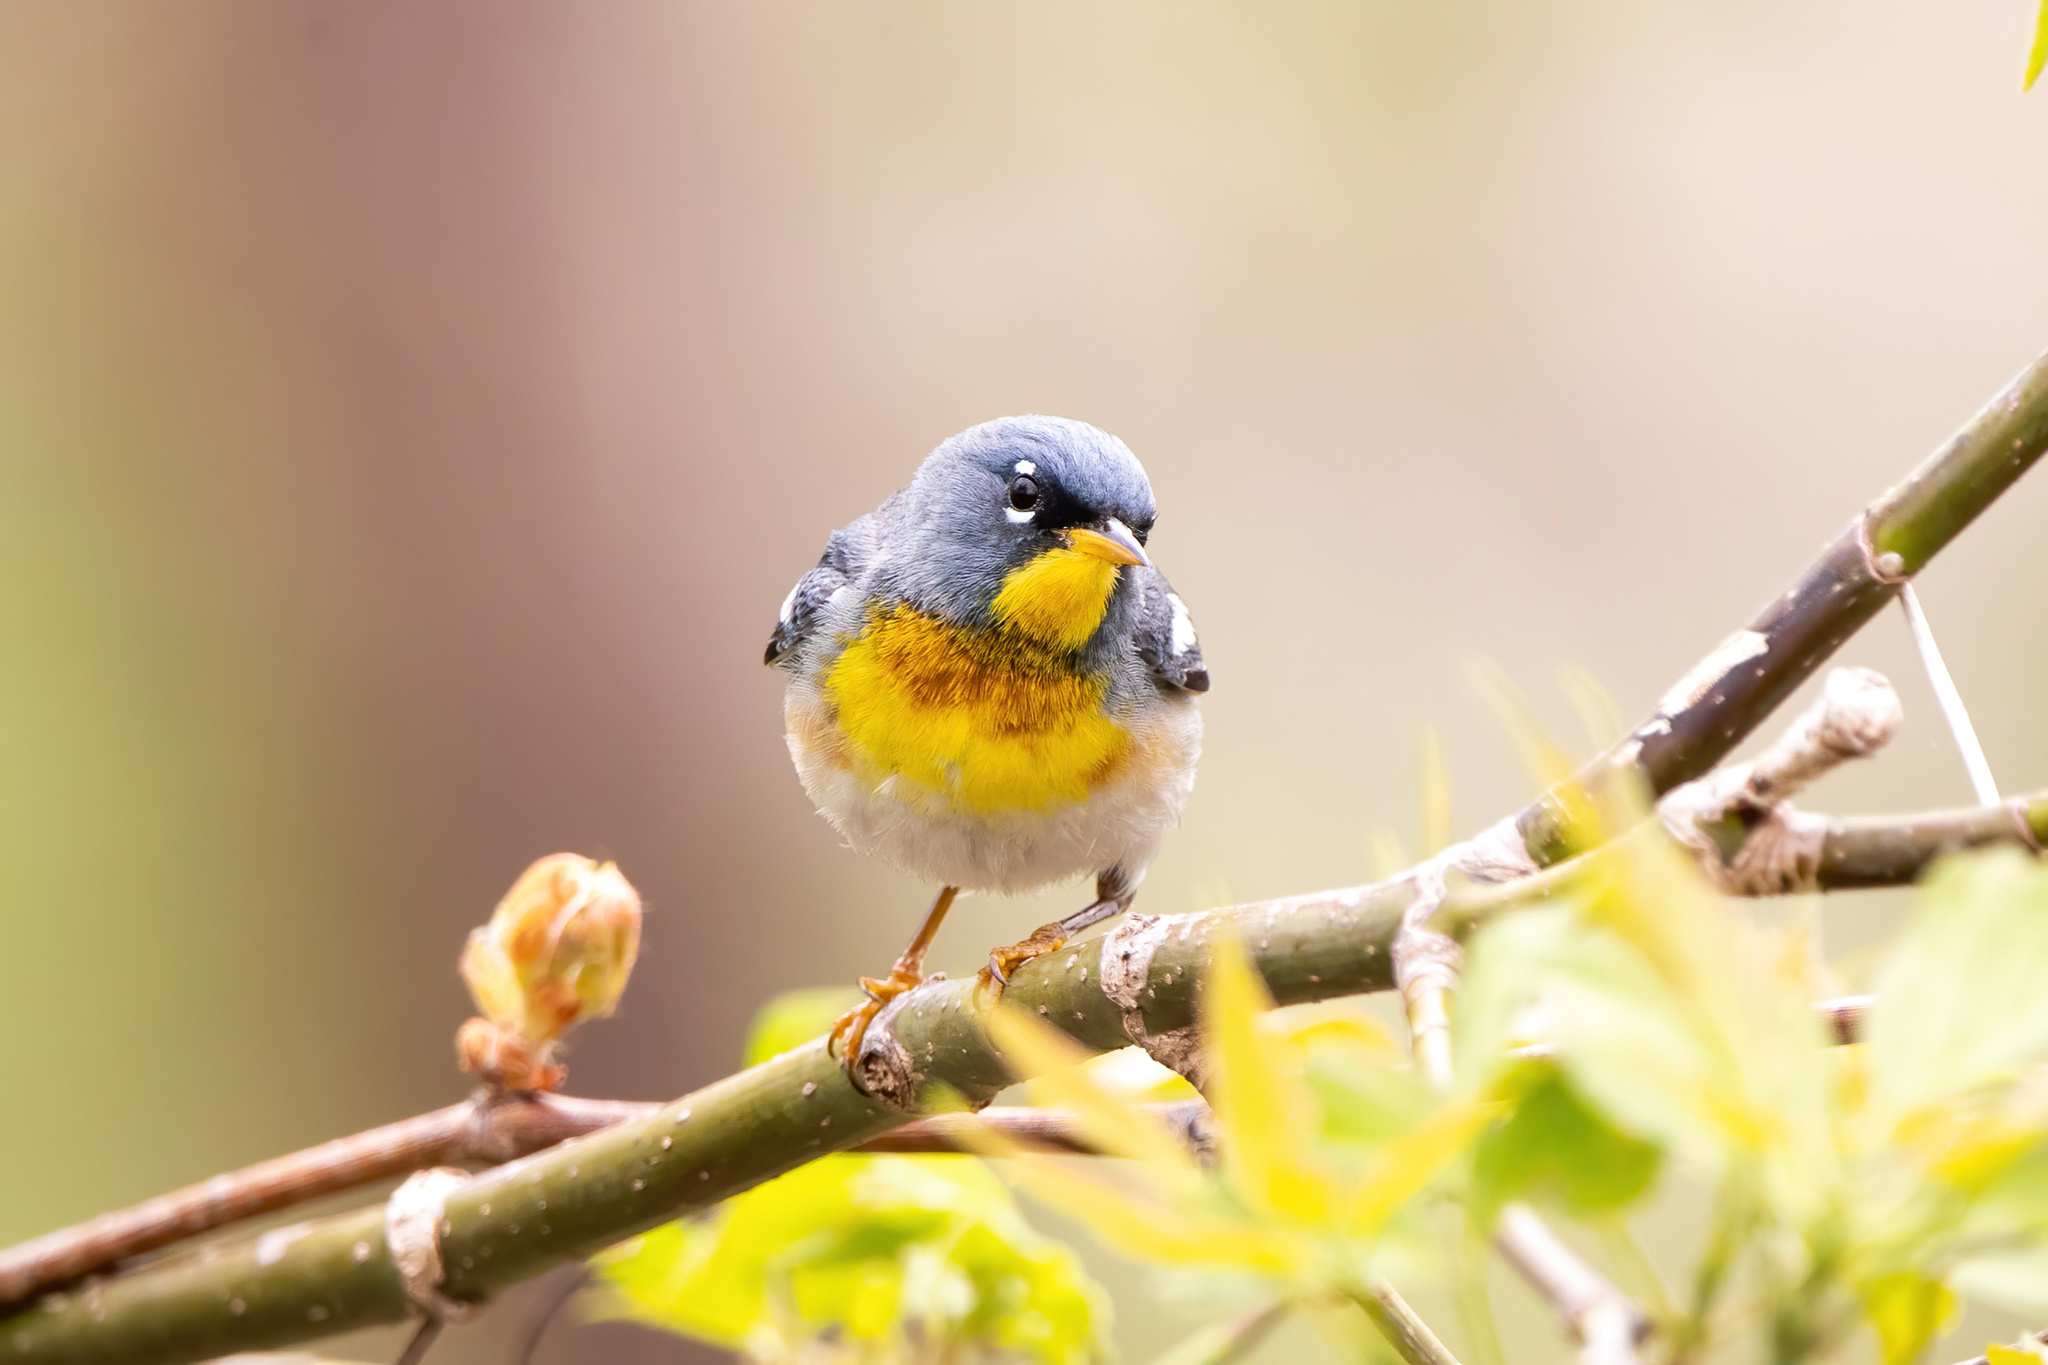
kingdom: Animalia
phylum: Chordata
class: Aves
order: Passeriformes
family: Parulidae
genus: Setophaga
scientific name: Setophaga americana
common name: Northern parula
